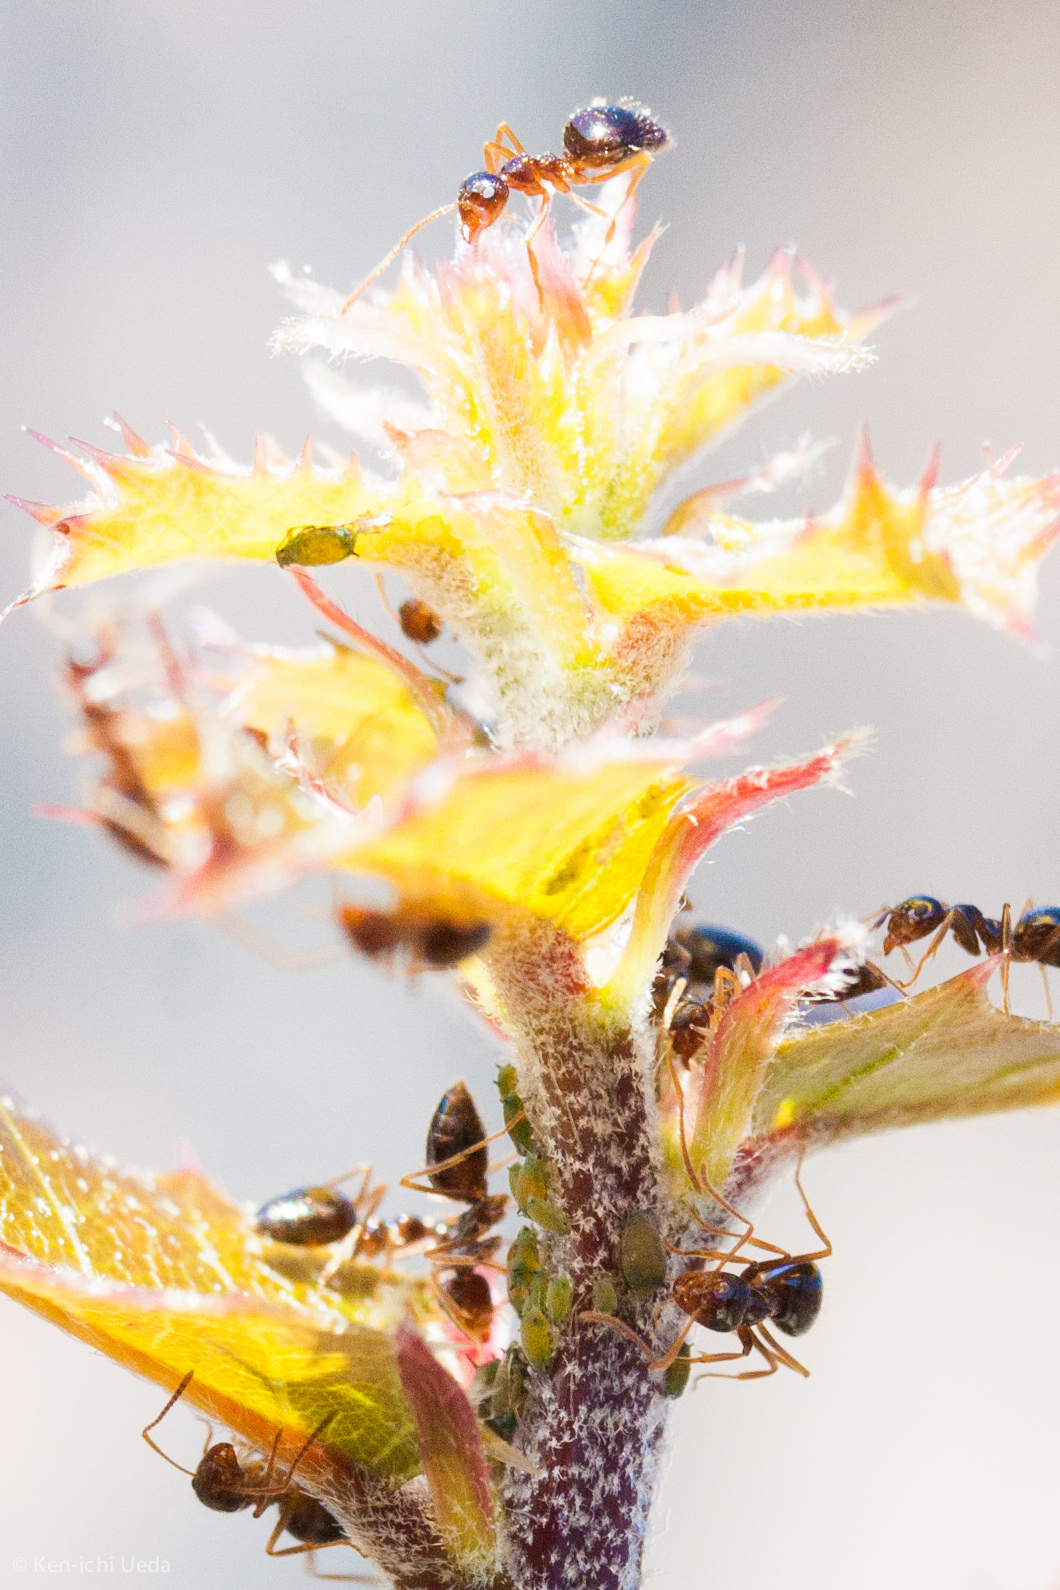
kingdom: Animalia
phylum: Arthropoda
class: Insecta
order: Hymenoptera
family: Formicidae
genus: Prenolepis
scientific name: Prenolepis imparis
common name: Small honey ant
